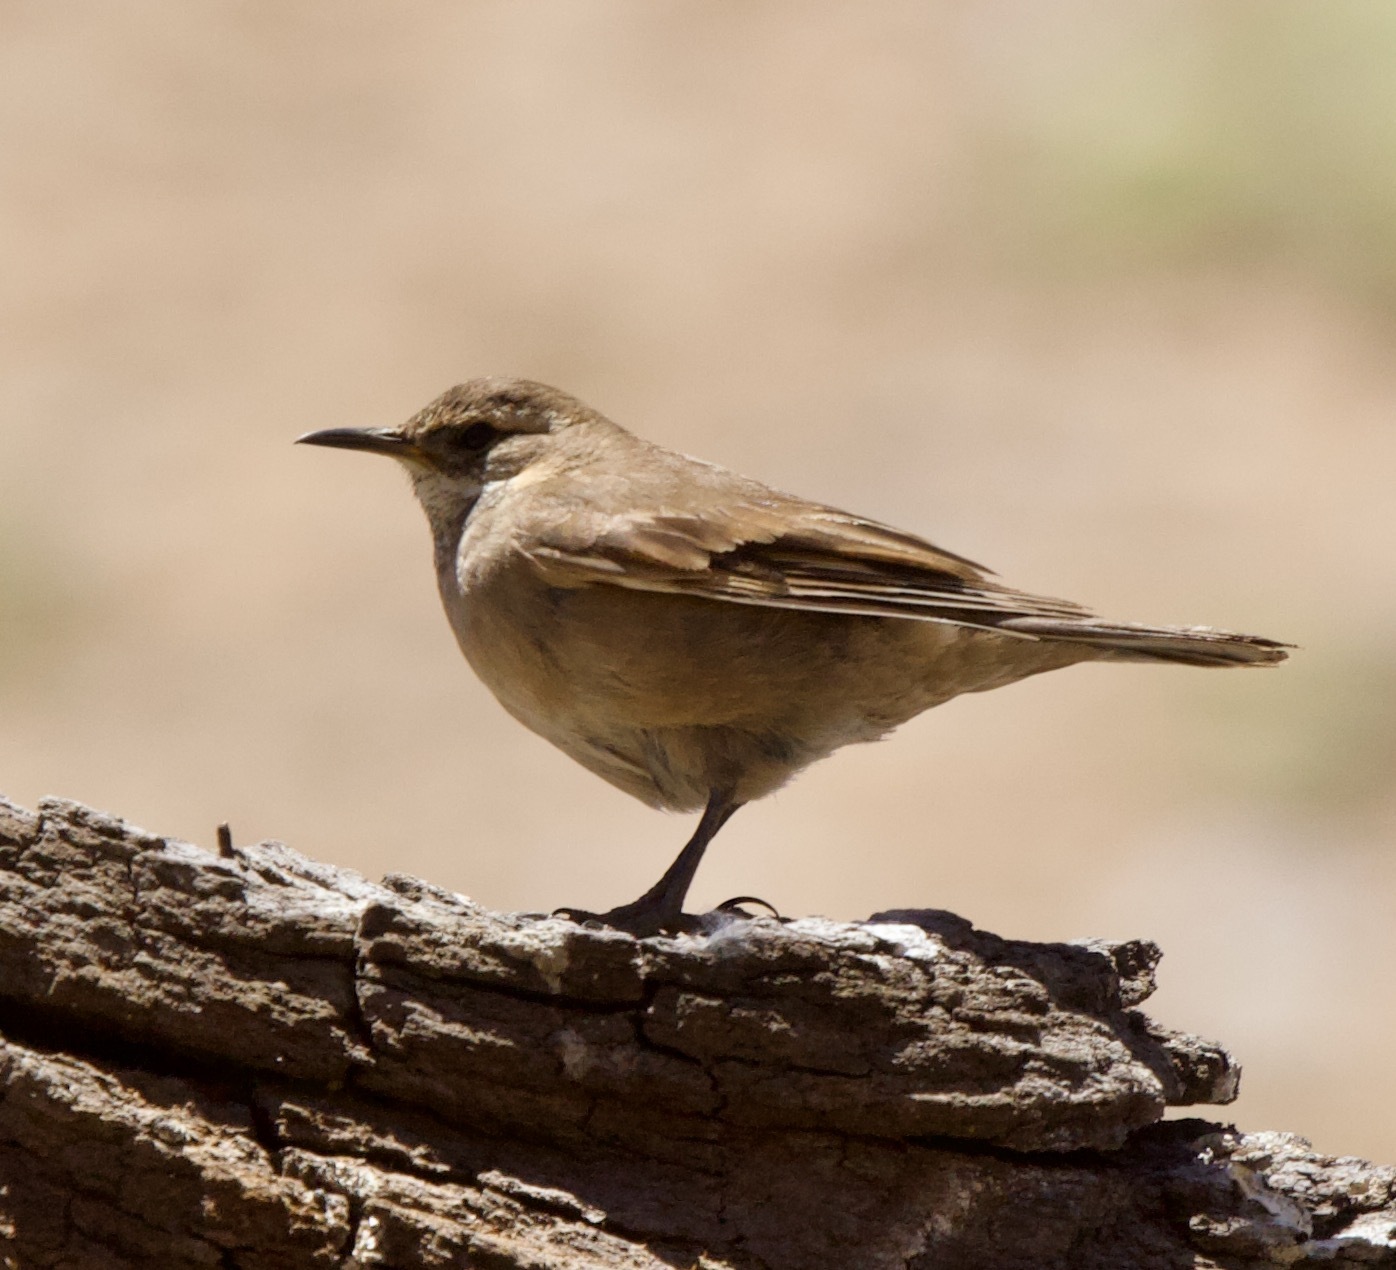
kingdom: Animalia
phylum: Chordata
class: Aves
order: Passeriformes
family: Furnariidae
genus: Cinclodes
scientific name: Cinclodes fuscus
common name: Buff-winged cinclodes
